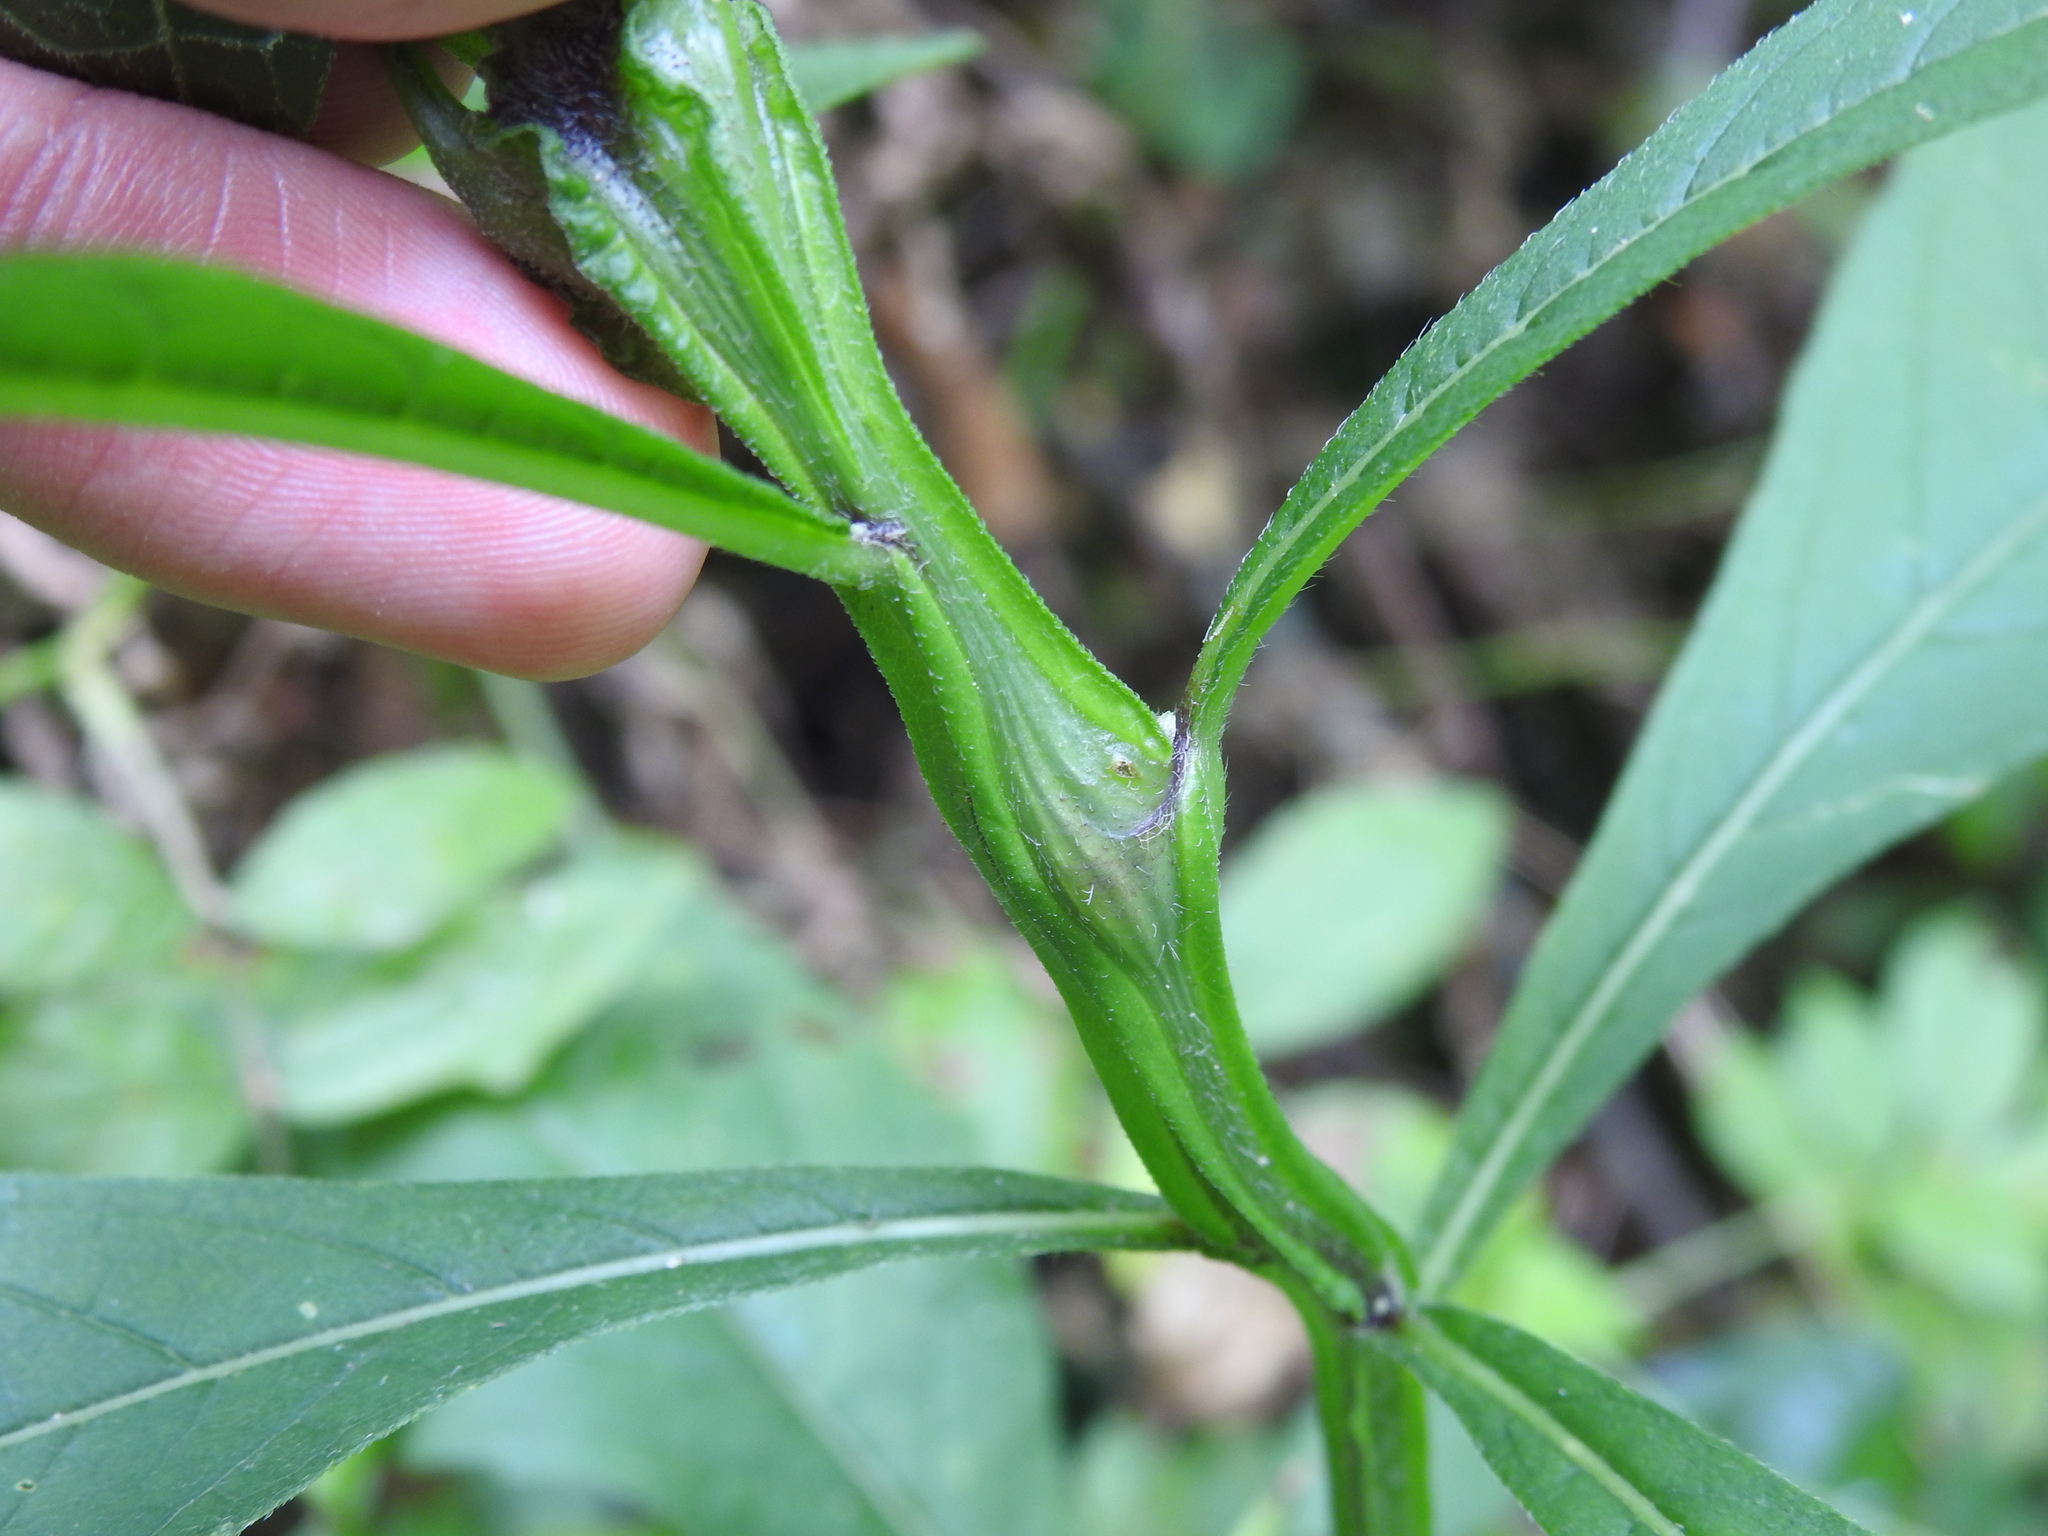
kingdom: Animalia
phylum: Arthropoda
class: Insecta
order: Diptera
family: Cecidomyiidae
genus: Neolasioptera
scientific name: Neolasioptera verbesinae
